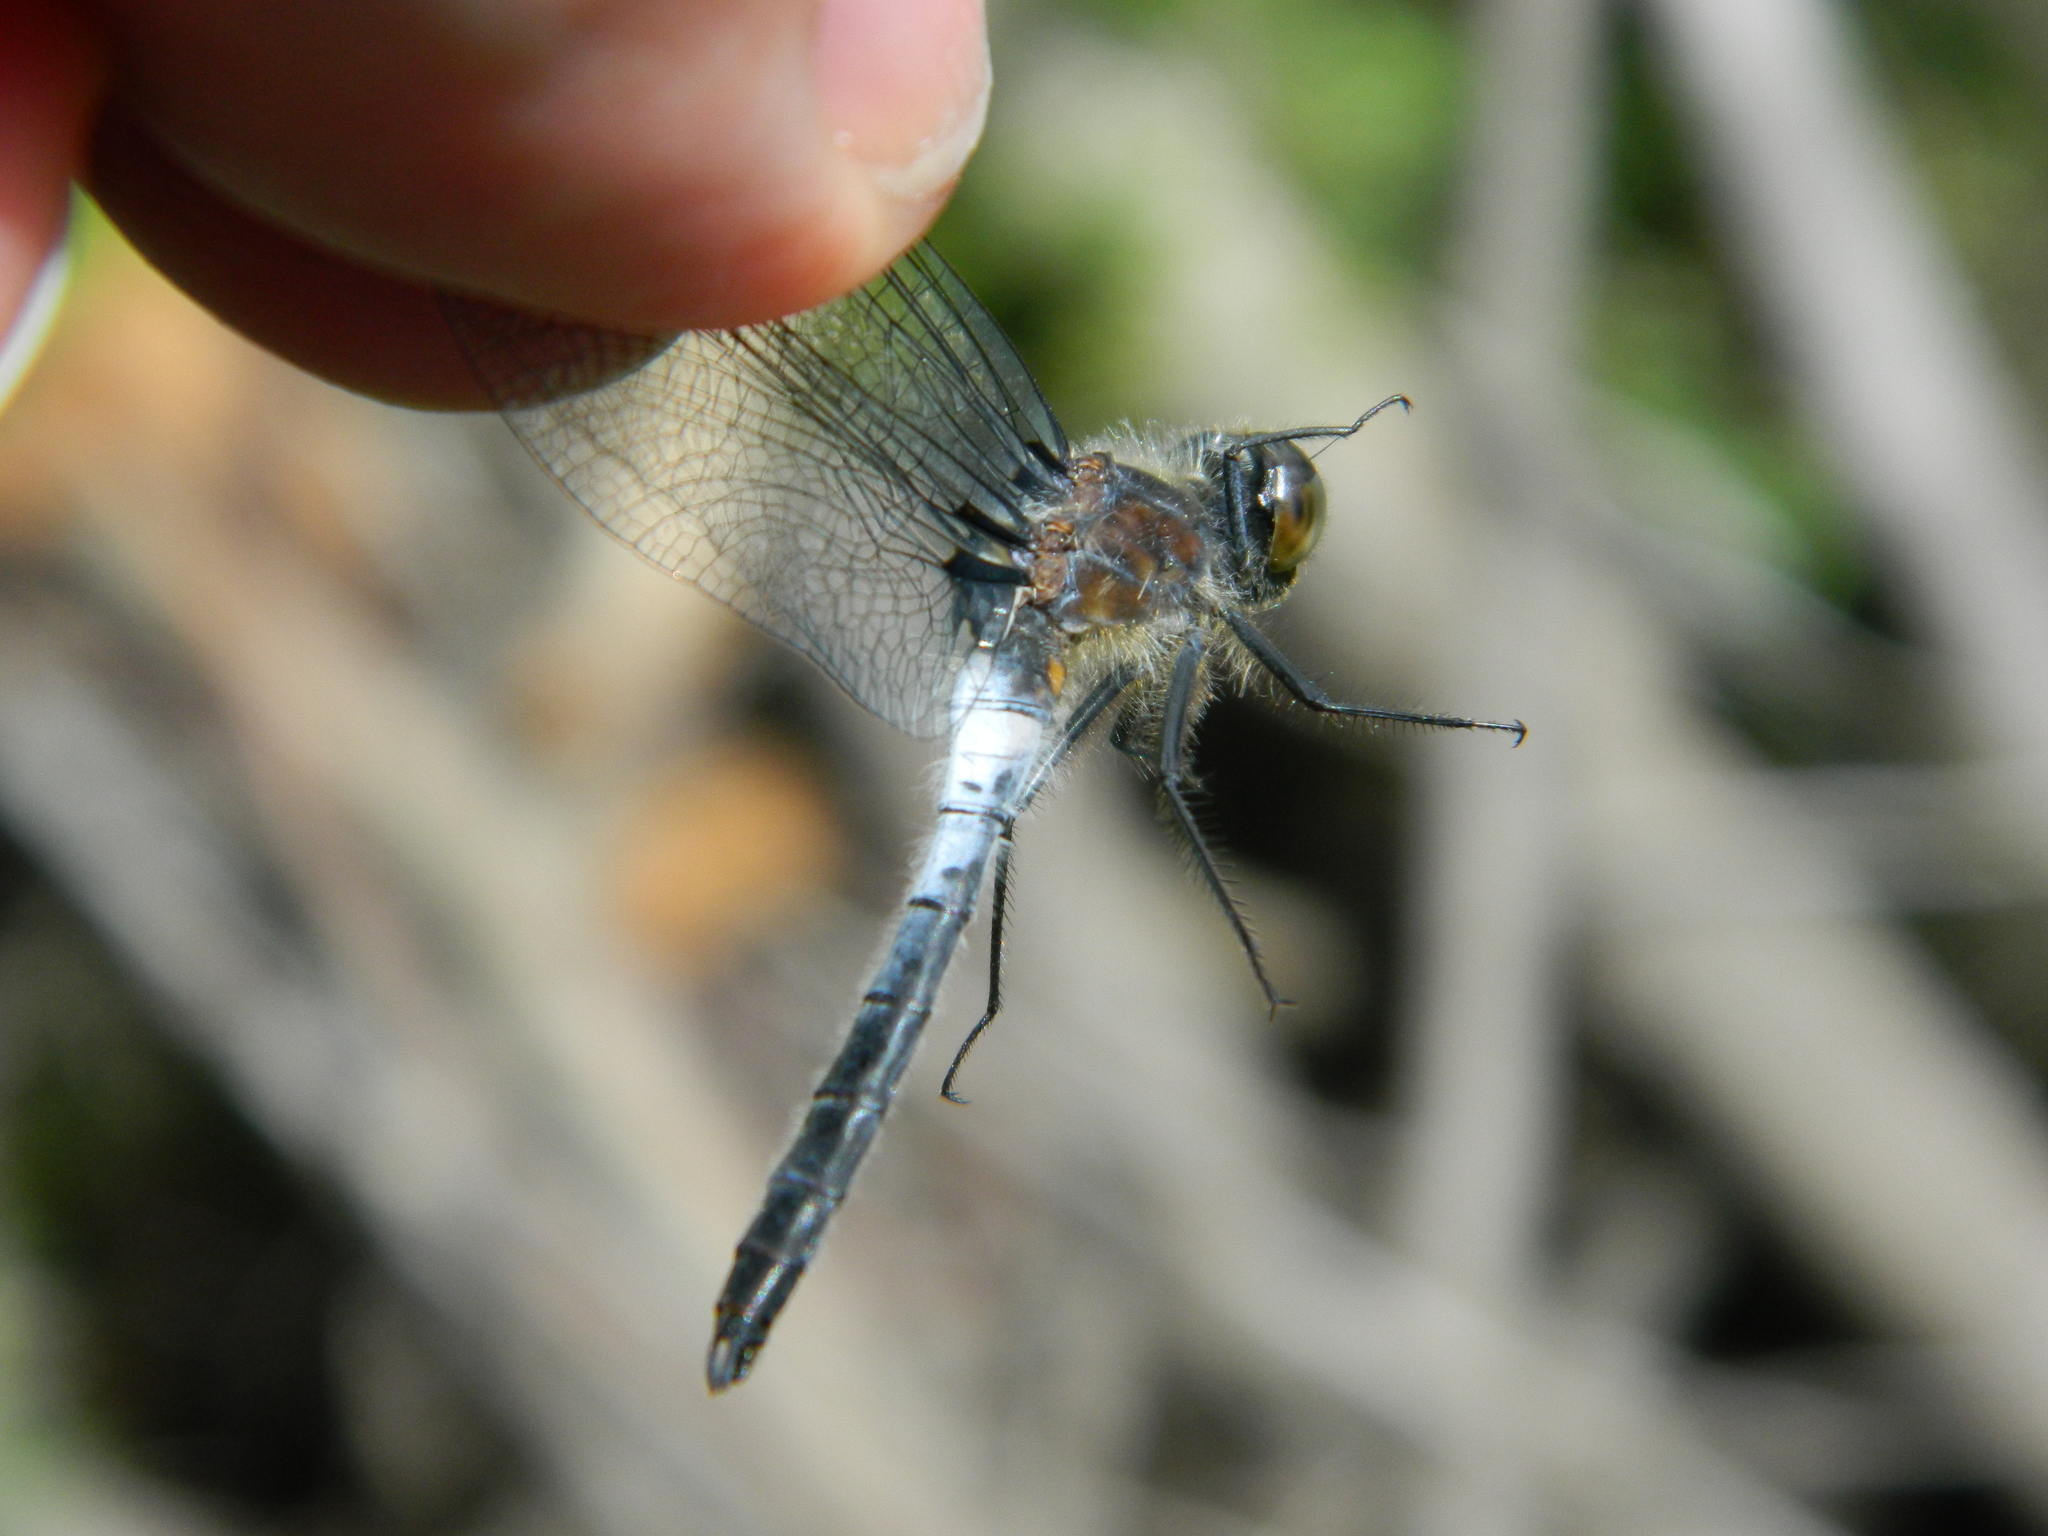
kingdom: Animalia
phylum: Arthropoda
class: Insecta
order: Odonata
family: Libellulidae
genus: Leucorrhinia
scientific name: Leucorrhinia frigida
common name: Frosted whiteface
